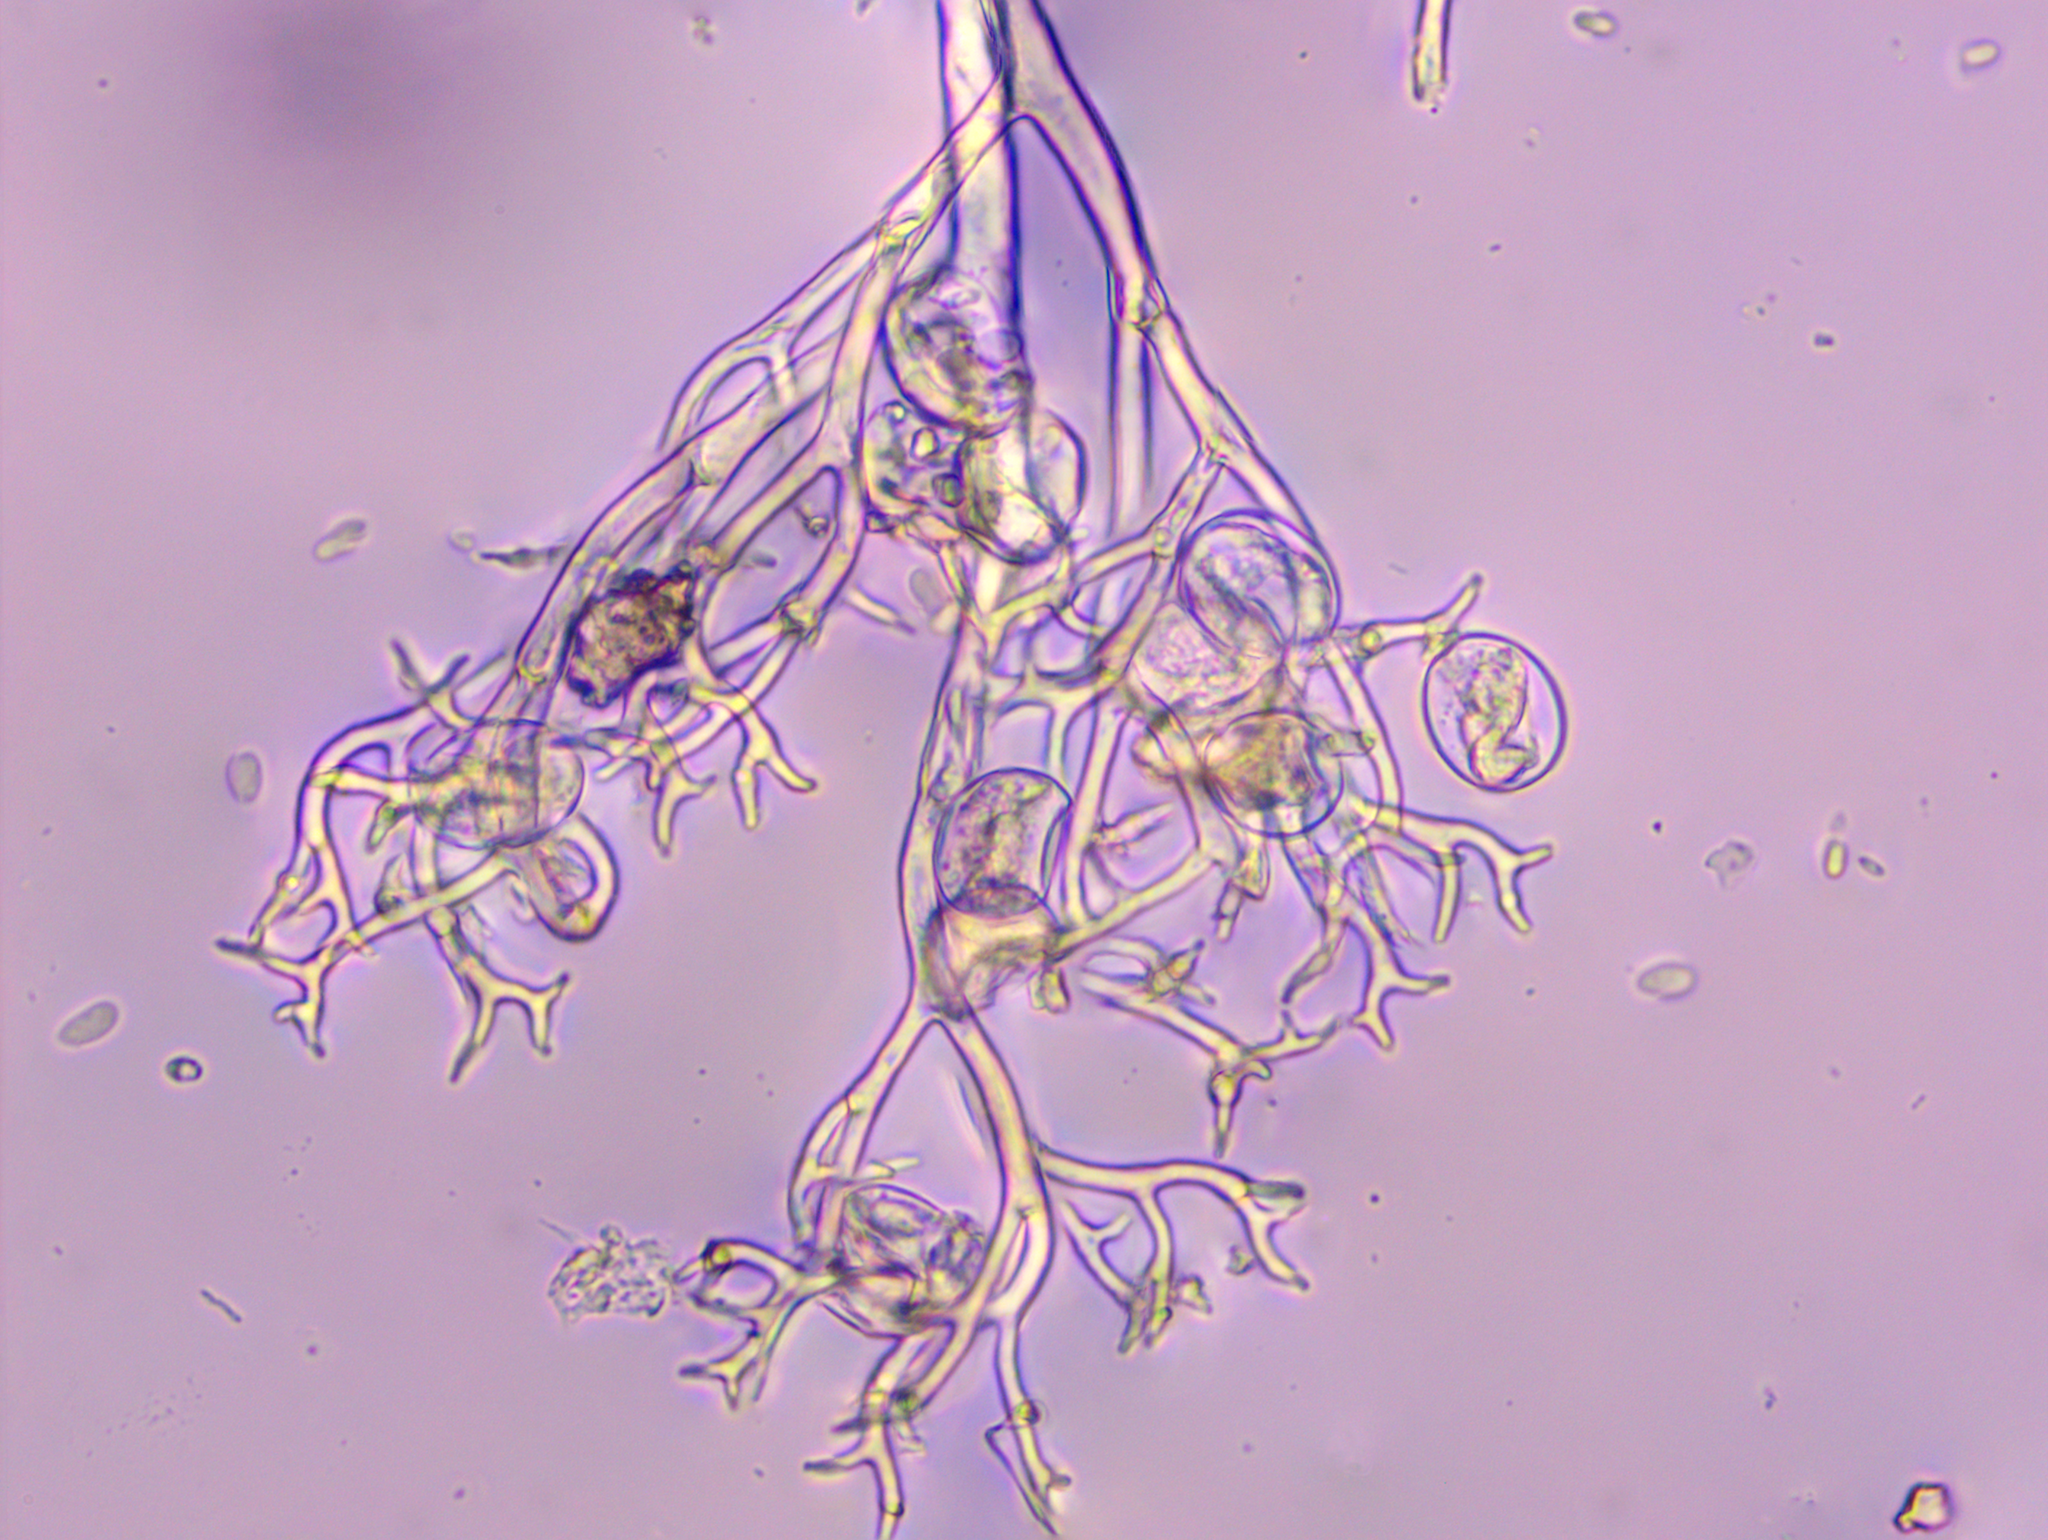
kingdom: Chromista
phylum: Oomycota
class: Peronosporea
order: Peronosporales
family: Peronosporaceae
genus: Peronospora
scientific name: Peronospora conferta
